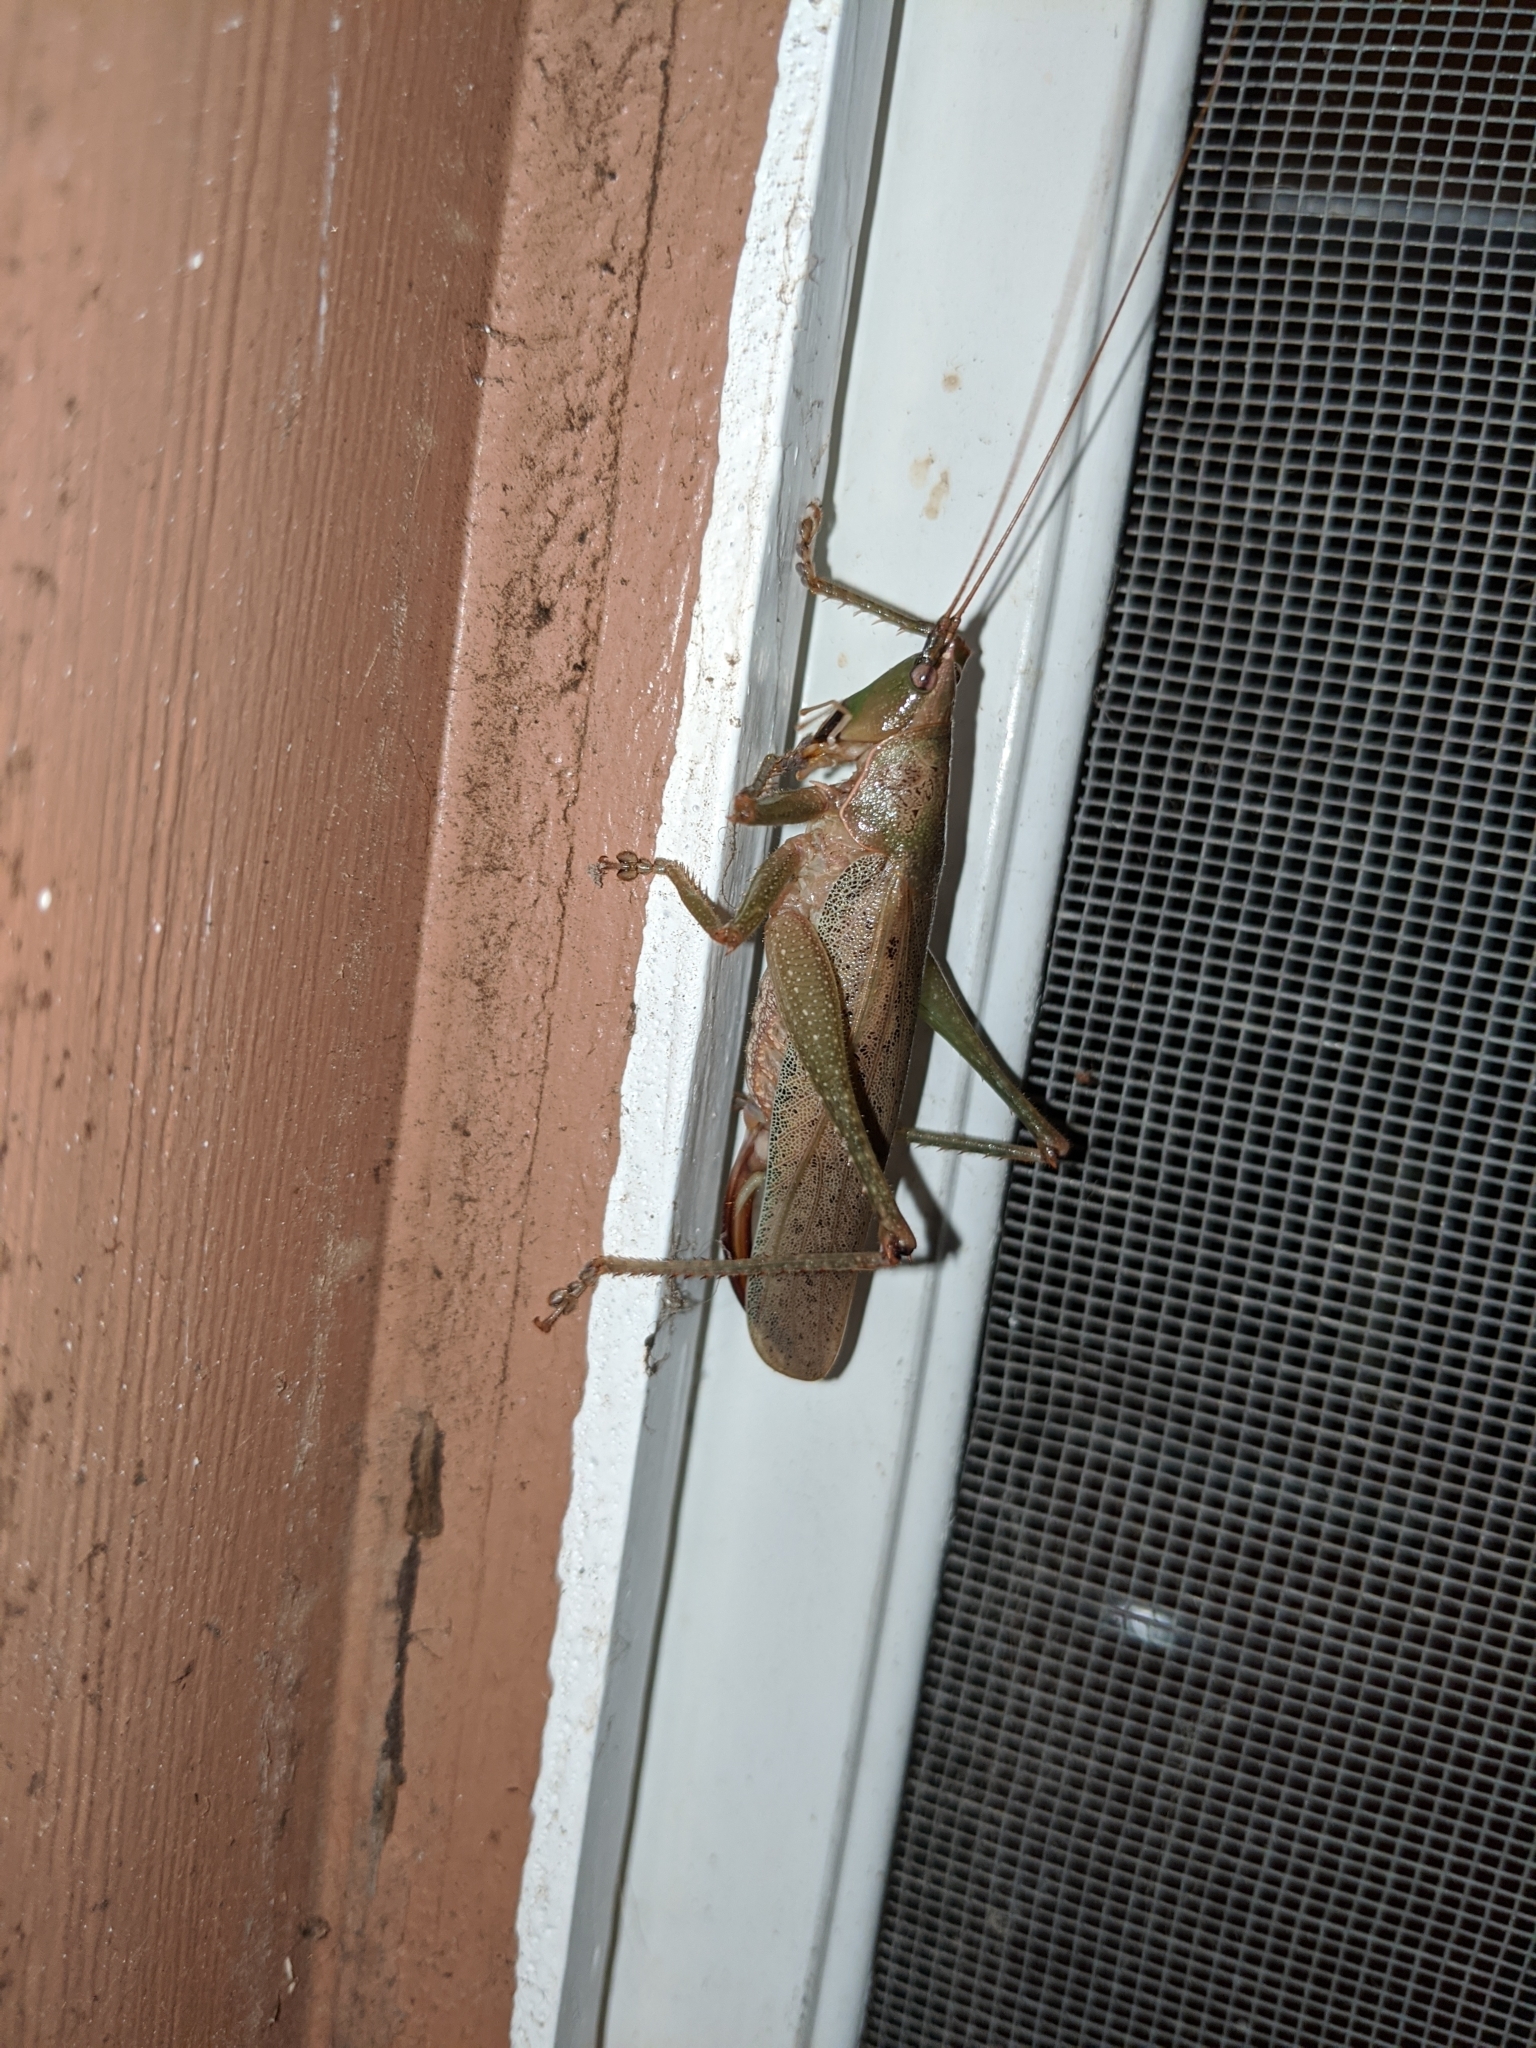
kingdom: Animalia
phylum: Arthropoda
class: Insecta
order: Orthoptera
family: Tettigoniidae
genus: Austrosalomona
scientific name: Austrosalomona falcata
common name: Olive-green coastal katydid
